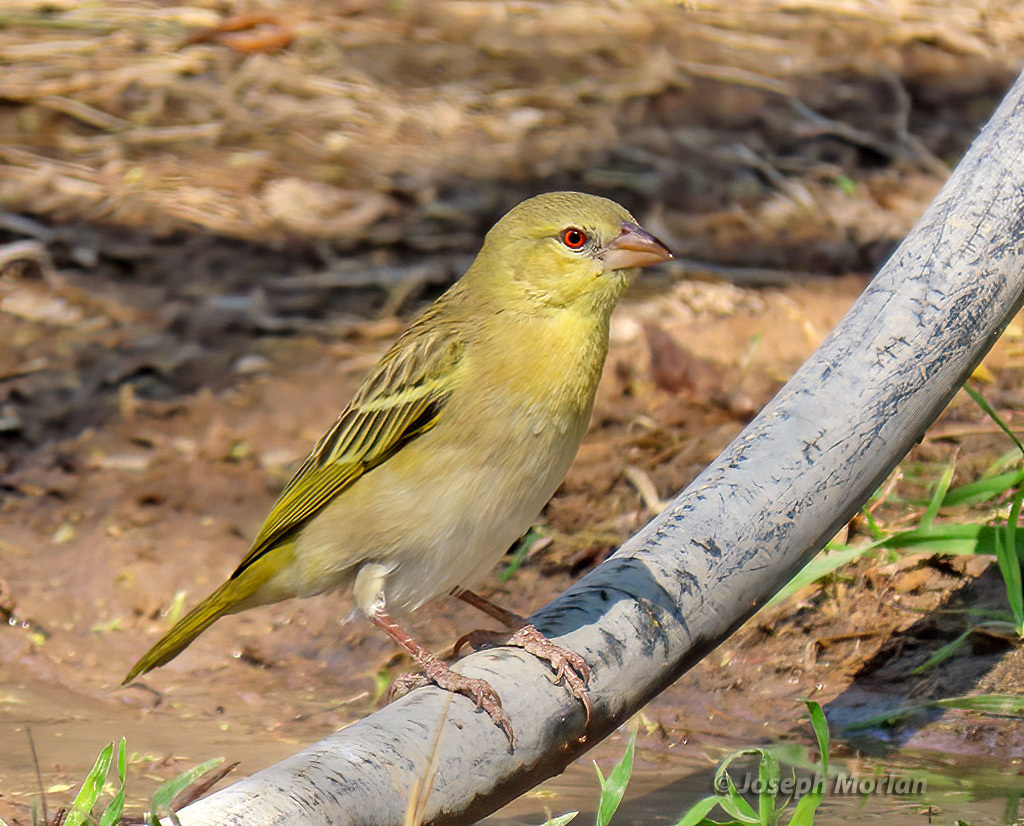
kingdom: Animalia
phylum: Chordata
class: Aves
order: Passeriformes
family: Ploceidae
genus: Ploceus
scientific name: Ploceus velatus
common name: Southern masked weaver
